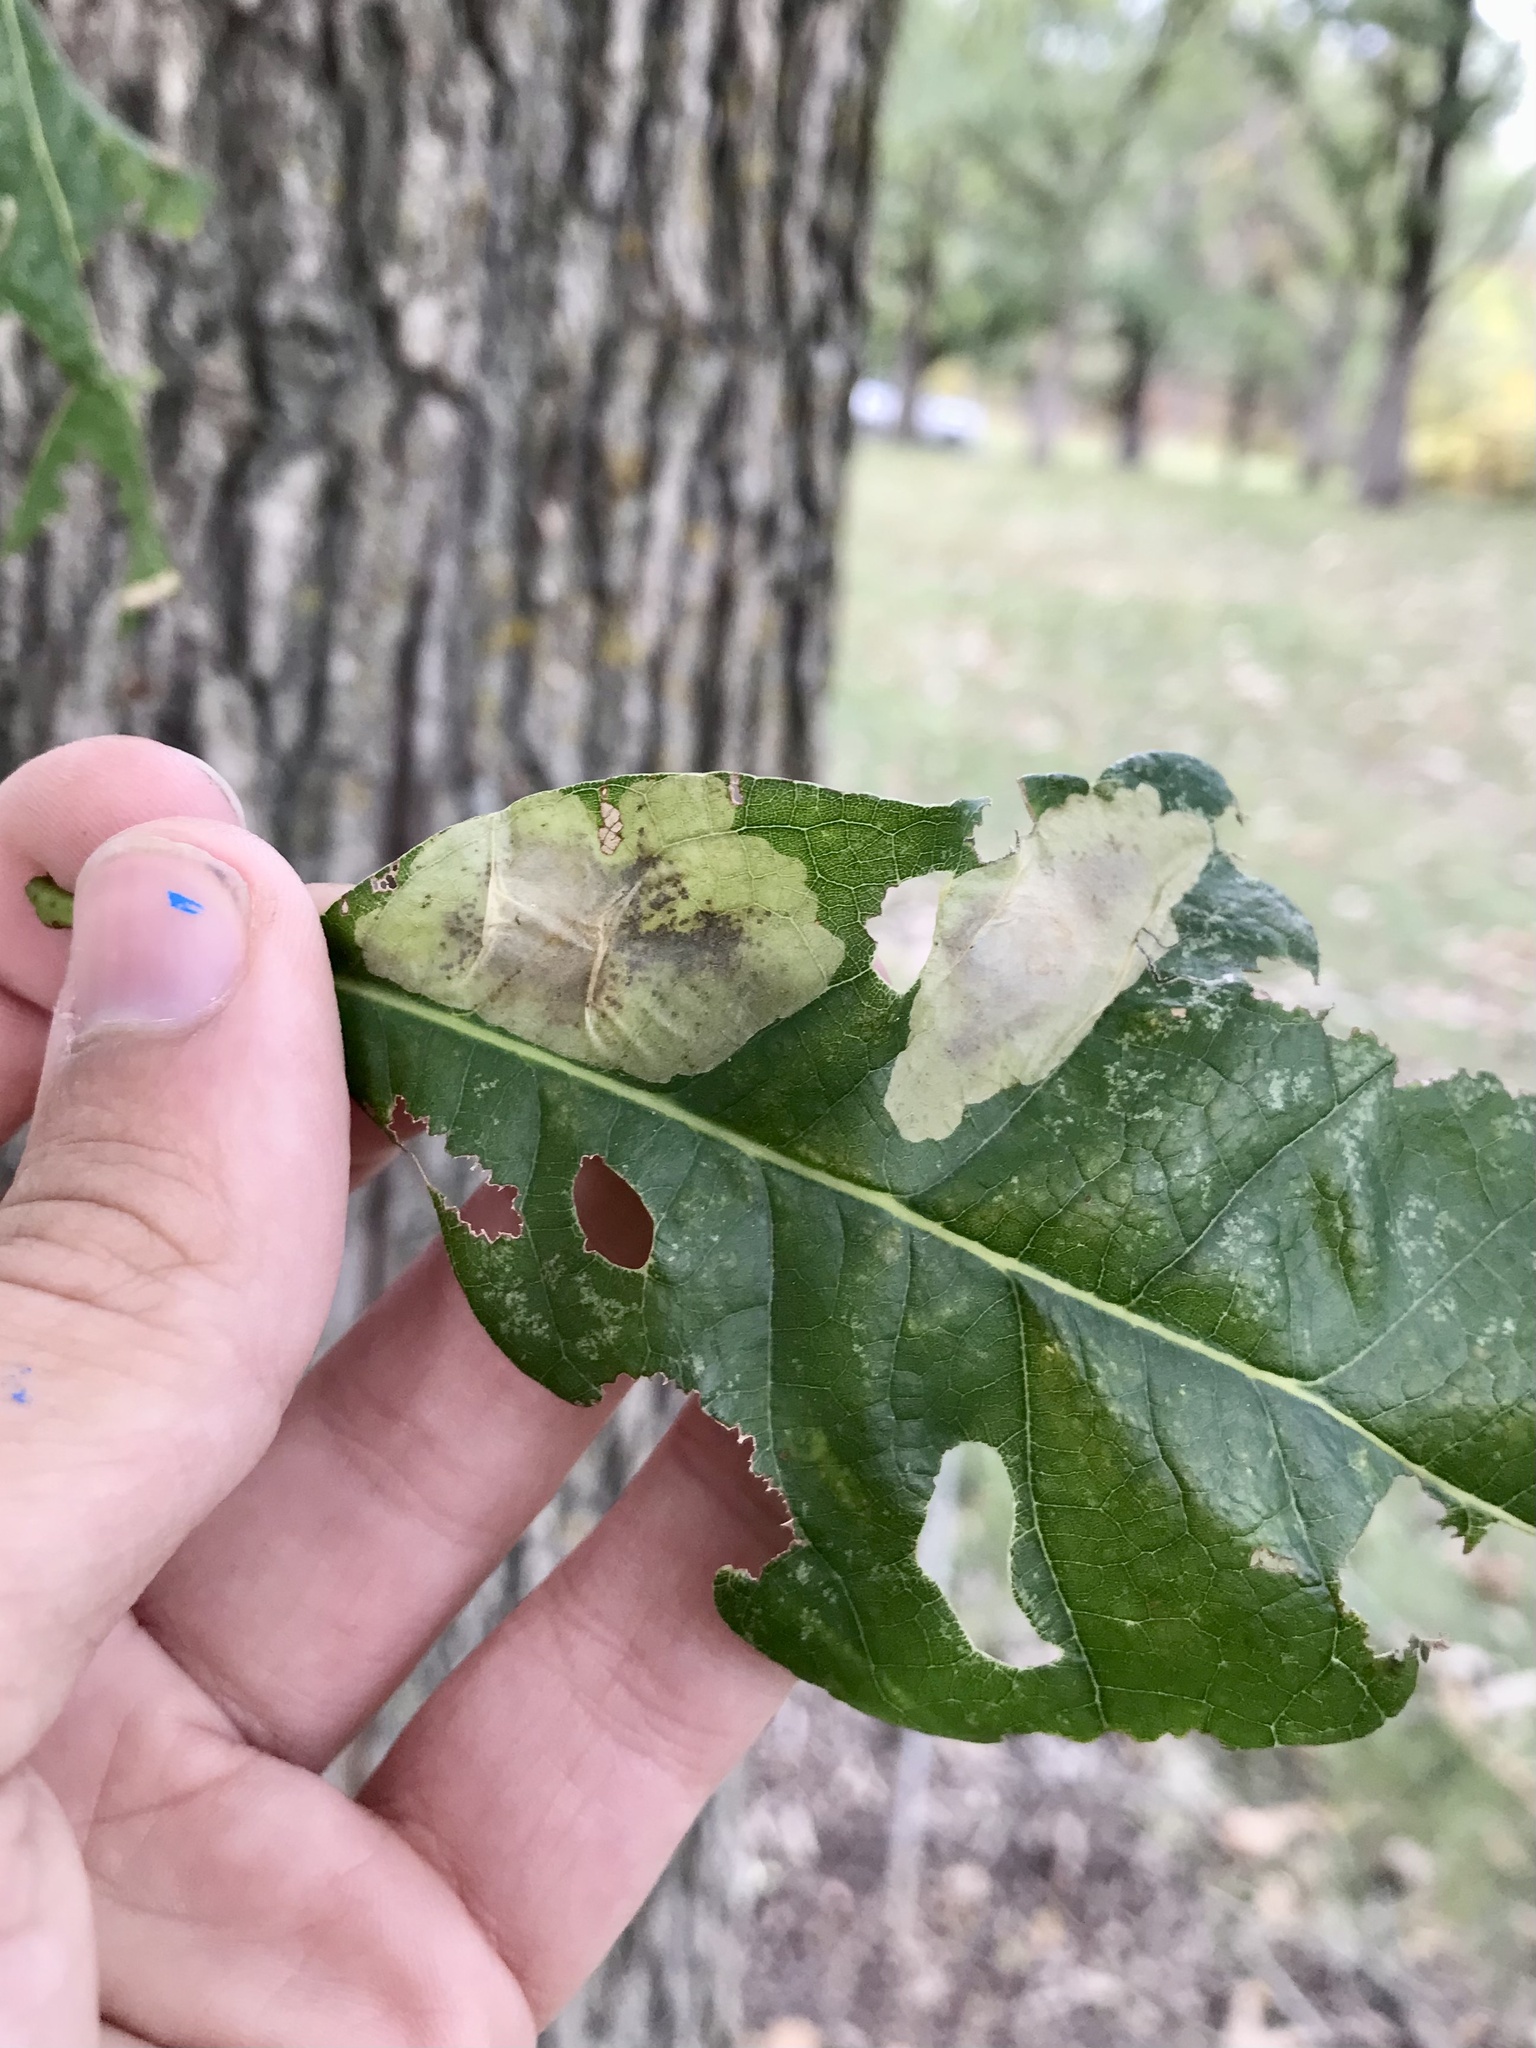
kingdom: Animalia
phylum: Arthropoda
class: Insecta
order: Lepidoptera
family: Gracillariidae
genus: Cameraria
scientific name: Cameraria macrocarpella
